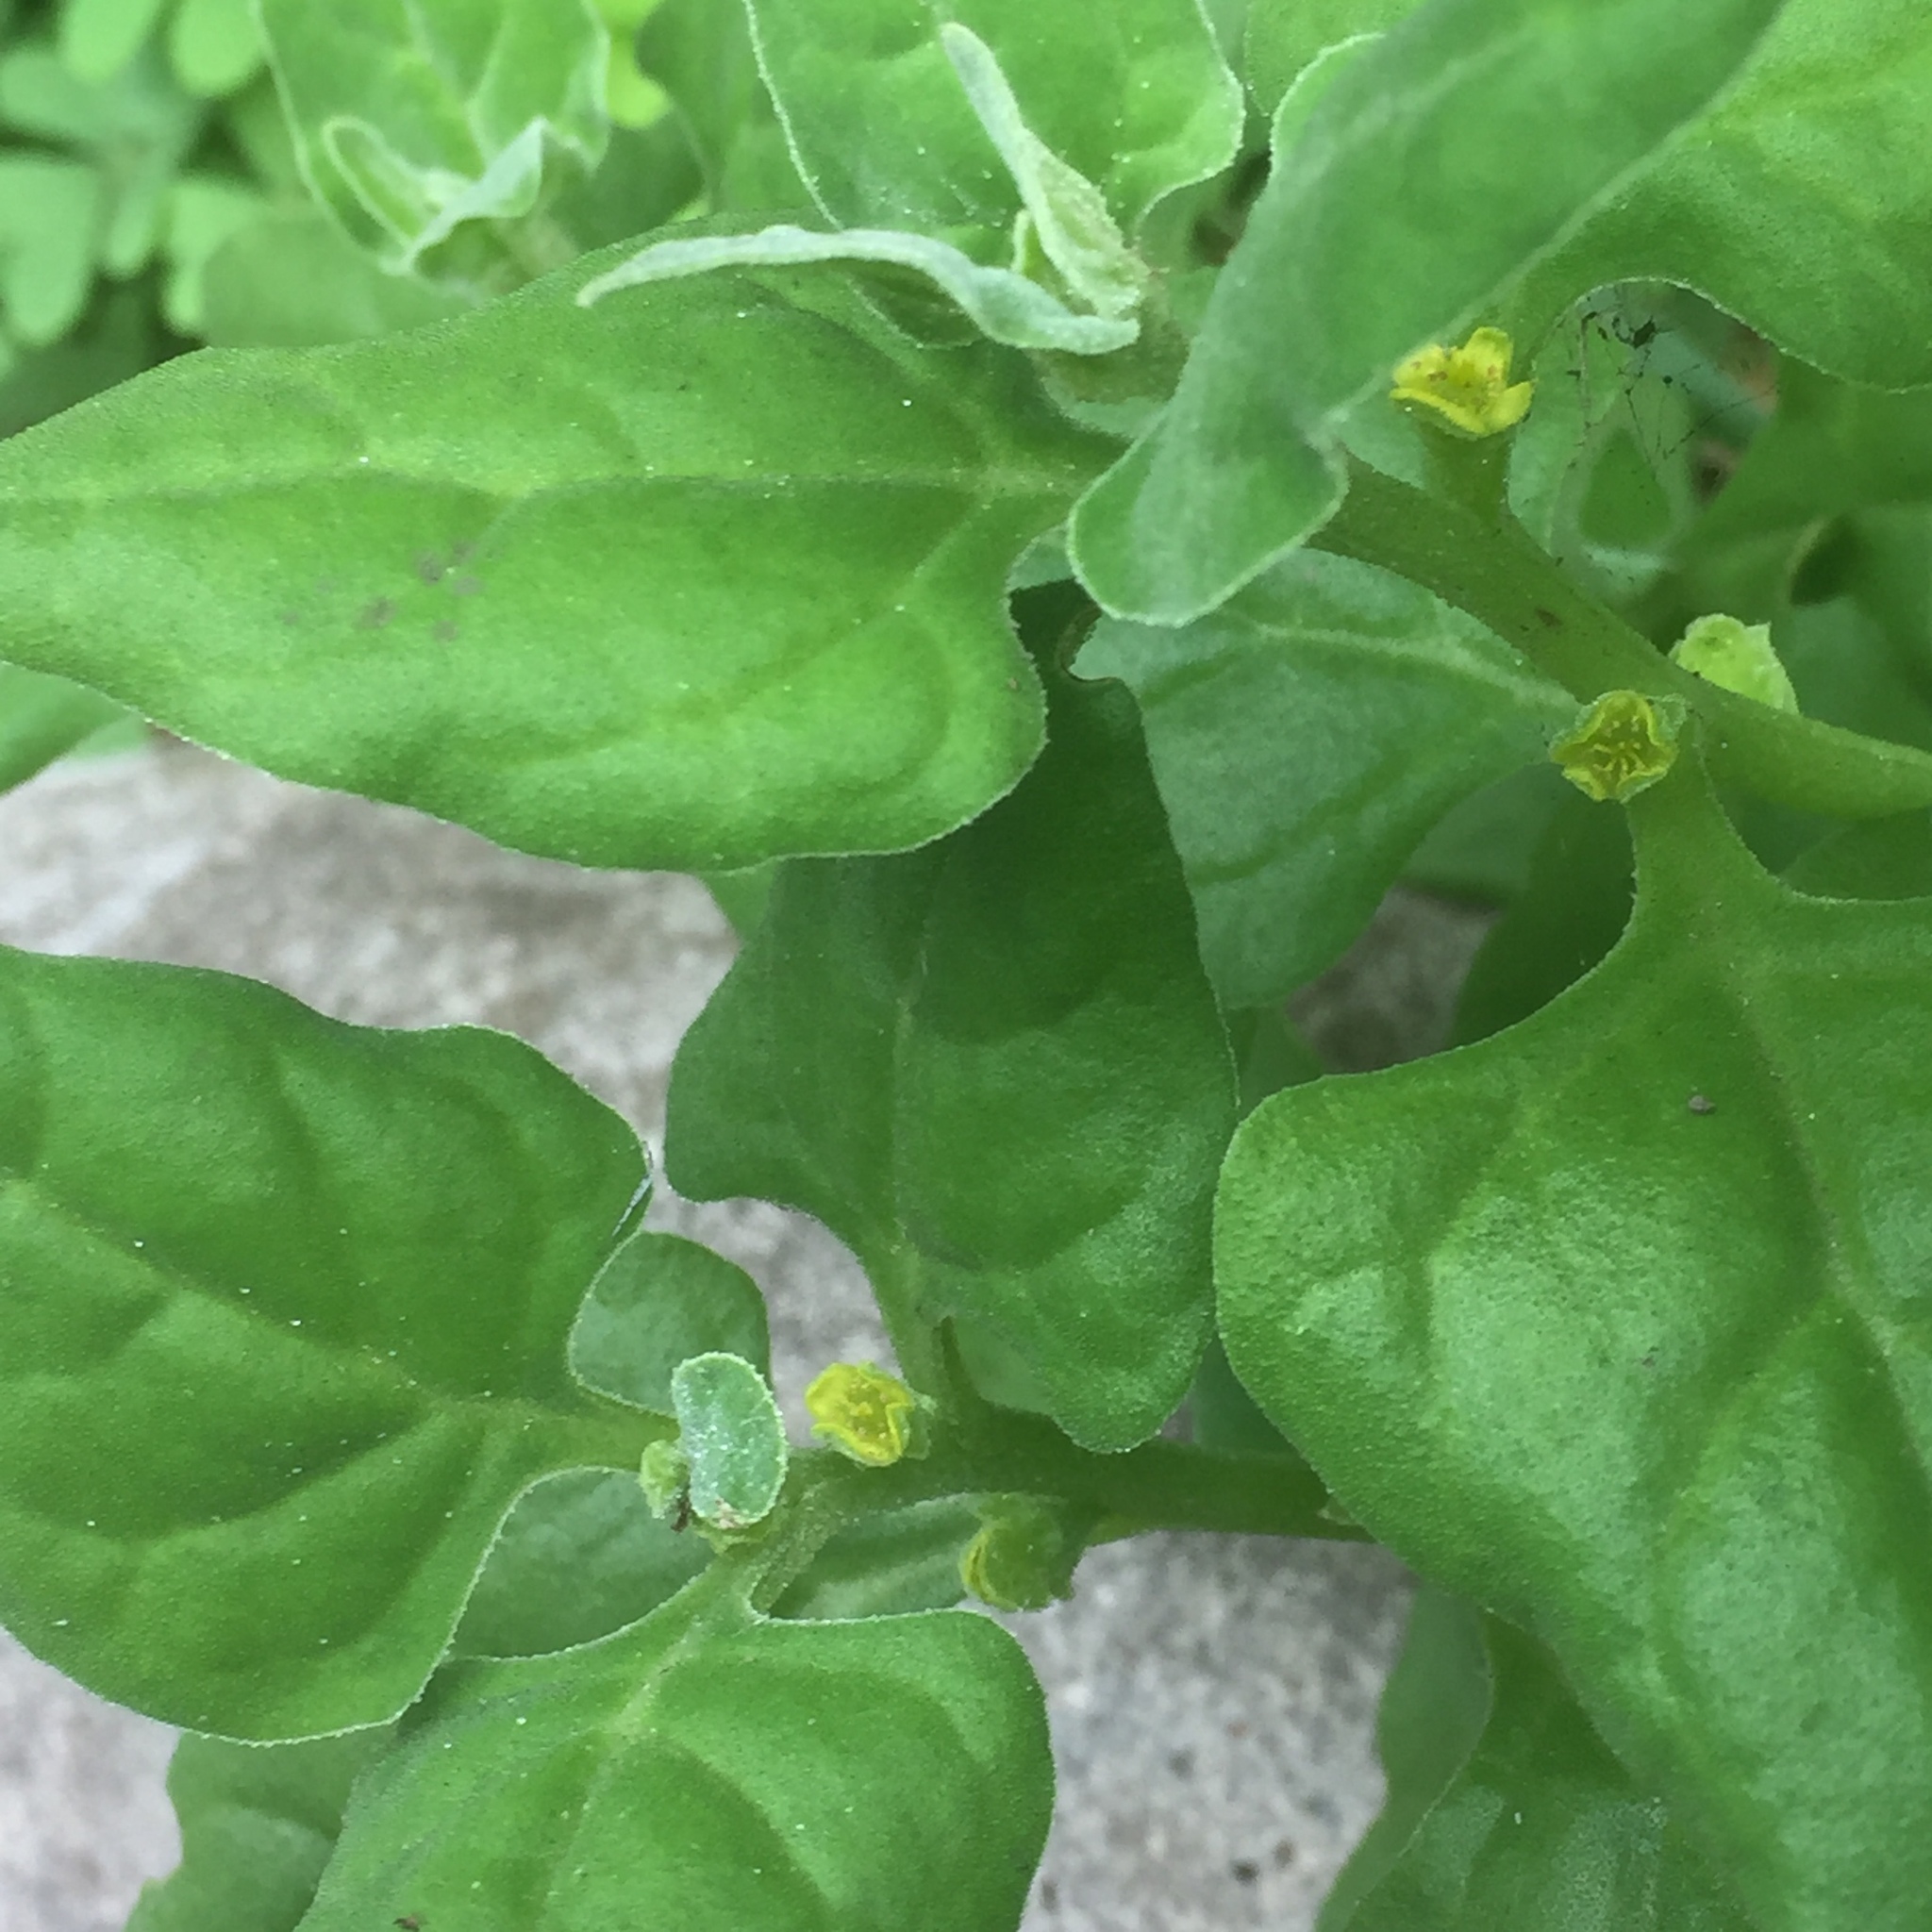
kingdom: Plantae
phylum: Tracheophyta
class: Magnoliopsida
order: Caryophyllales
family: Aizoaceae
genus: Tetragonia
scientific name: Tetragonia tetragonoides
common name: New zealand-spinach
